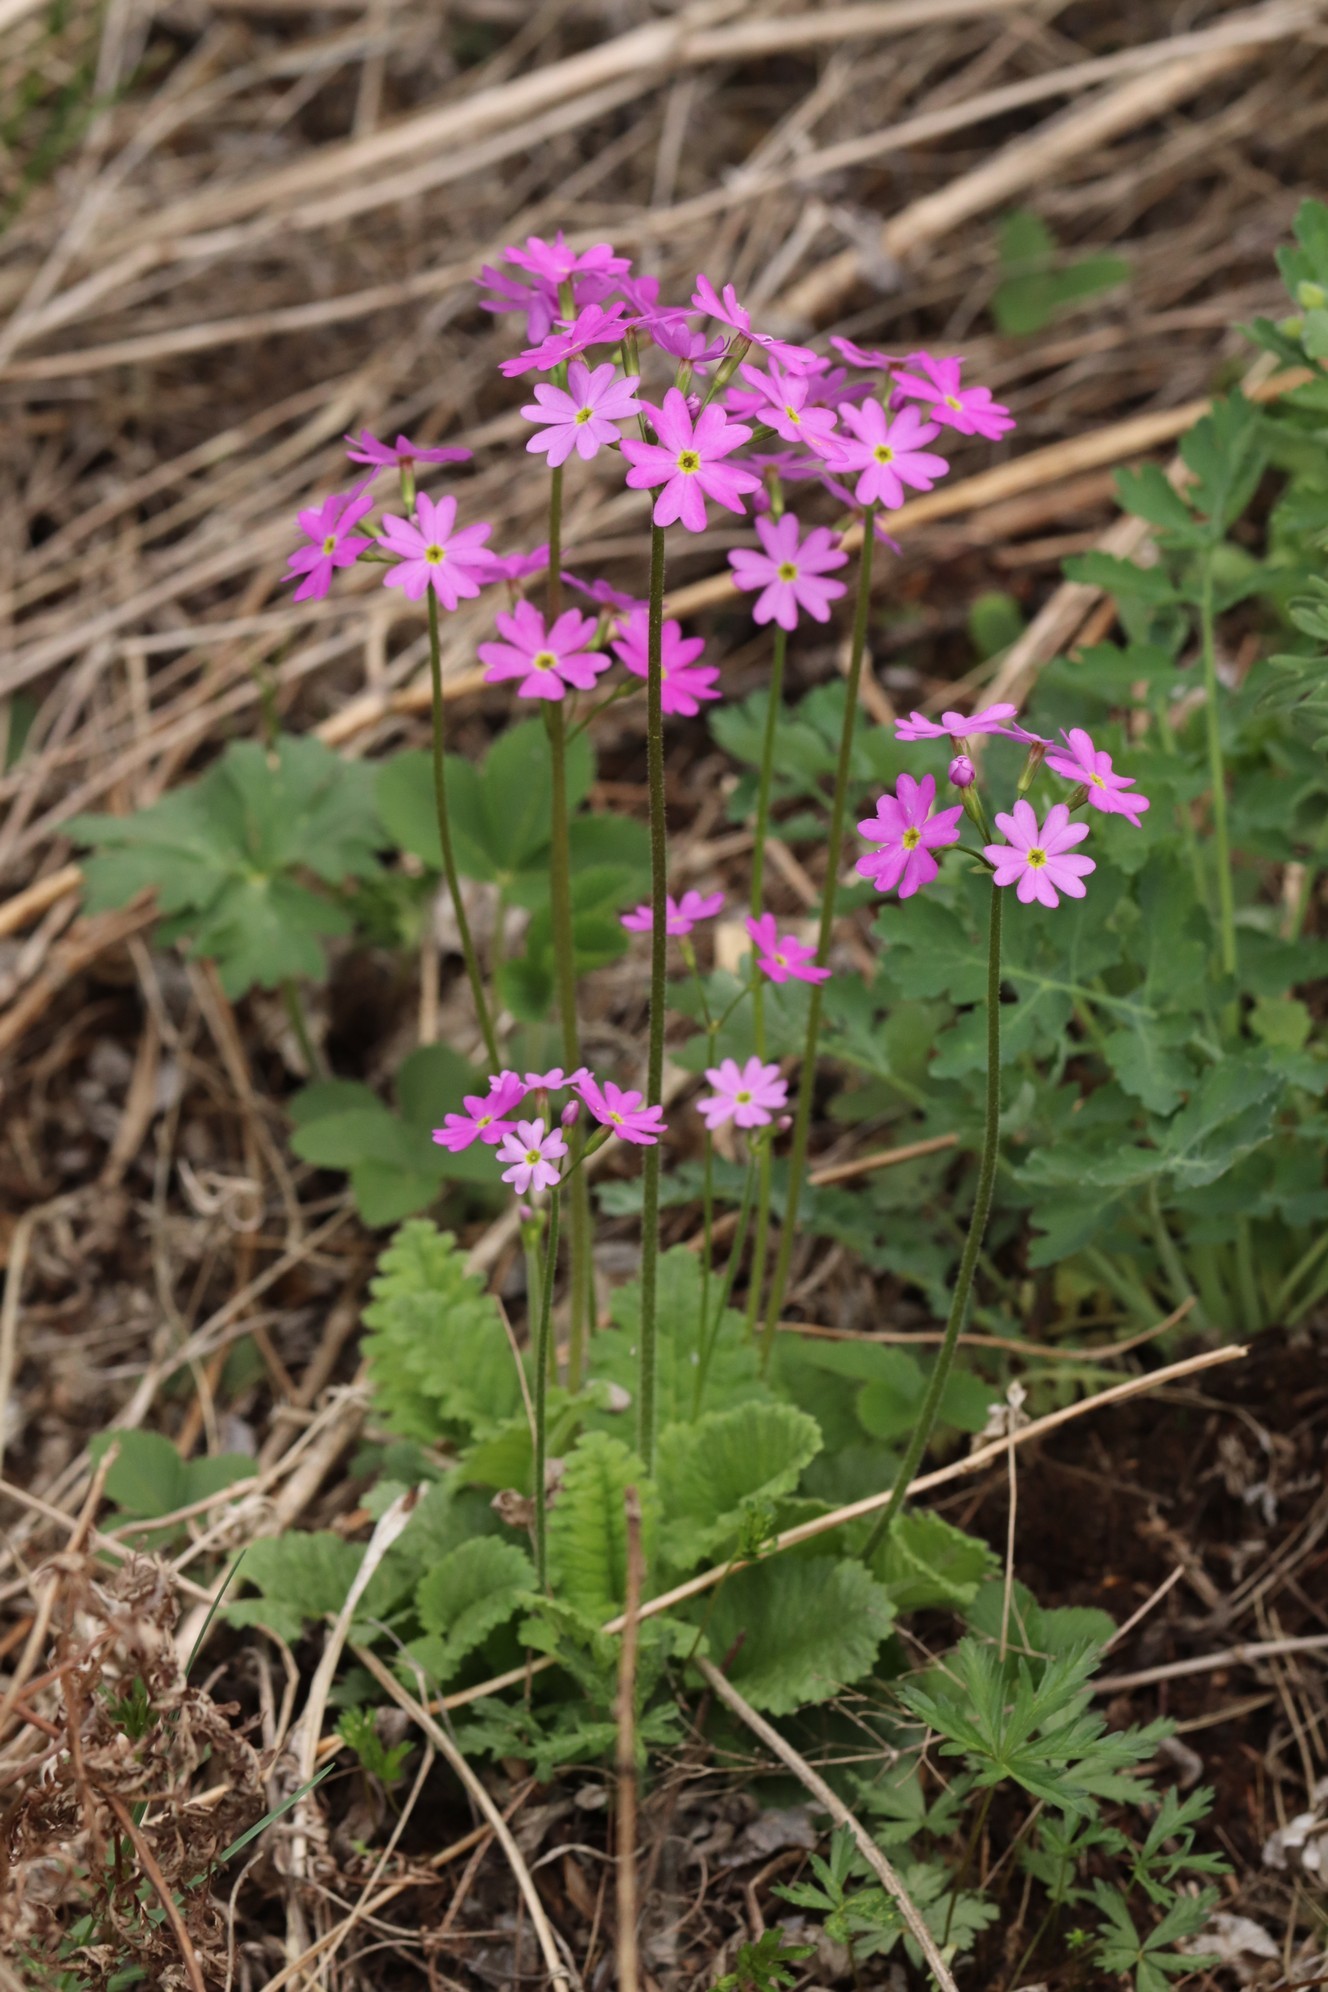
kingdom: Plantae
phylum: Tracheophyta
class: Magnoliopsida
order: Ericales
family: Primulaceae
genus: Primula
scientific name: Primula cortusoides
